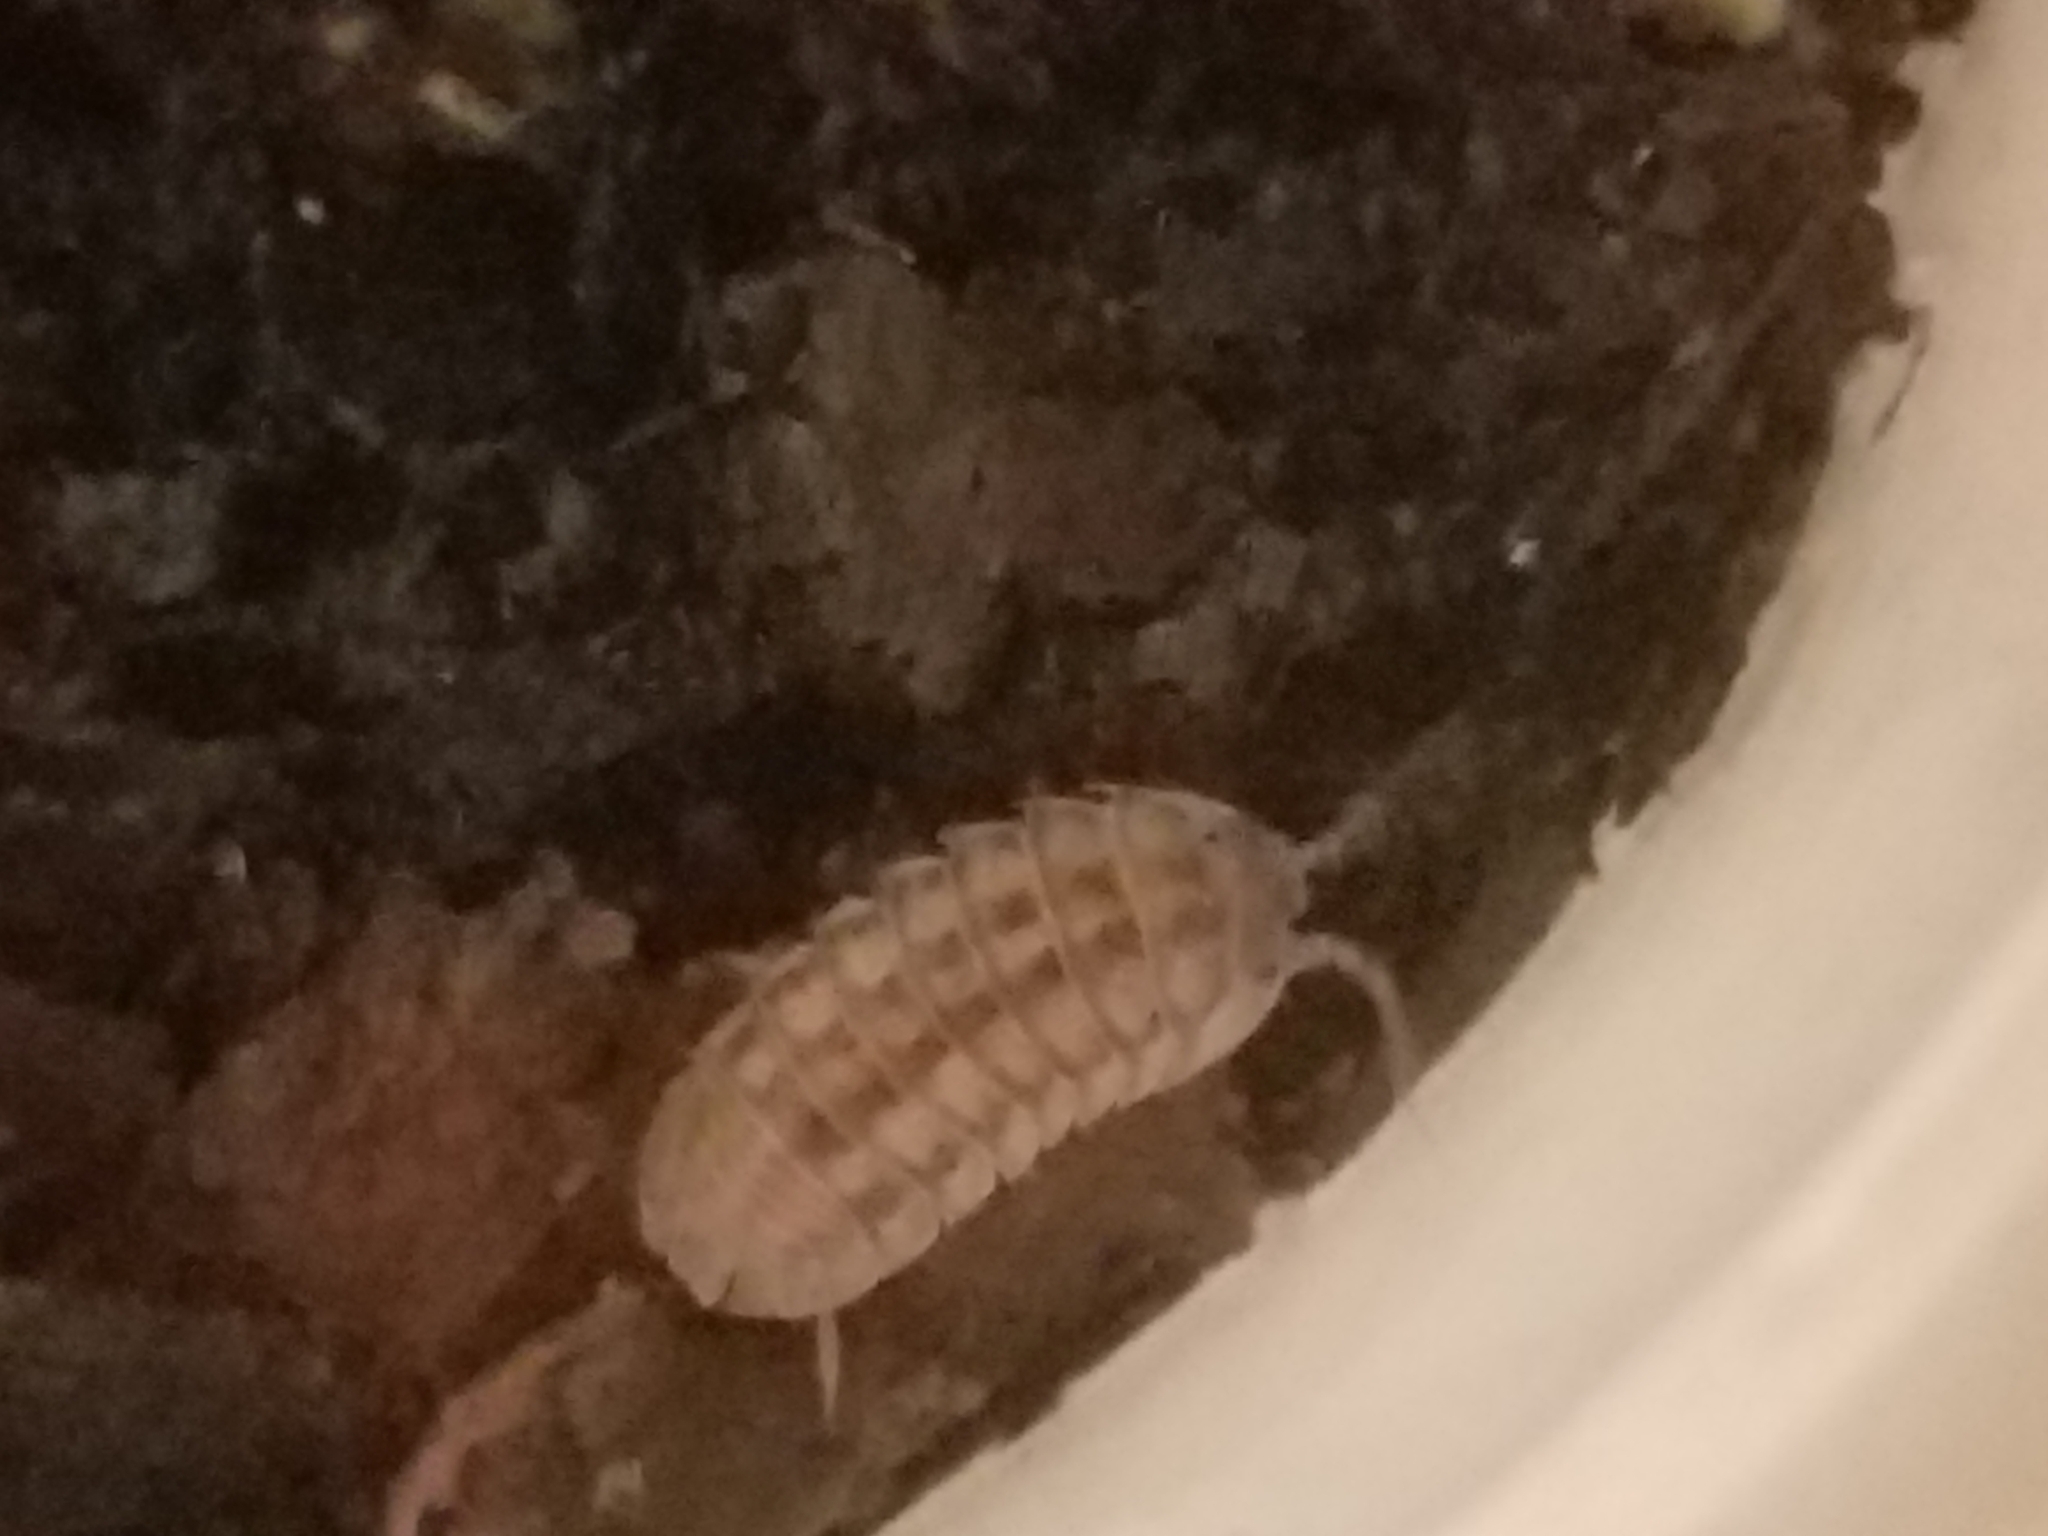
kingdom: Animalia
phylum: Arthropoda
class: Malacostraca
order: Isopoda
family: Armadillidiidae
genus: Armadillidium
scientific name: Armadillidium nasatum
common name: Isopod
